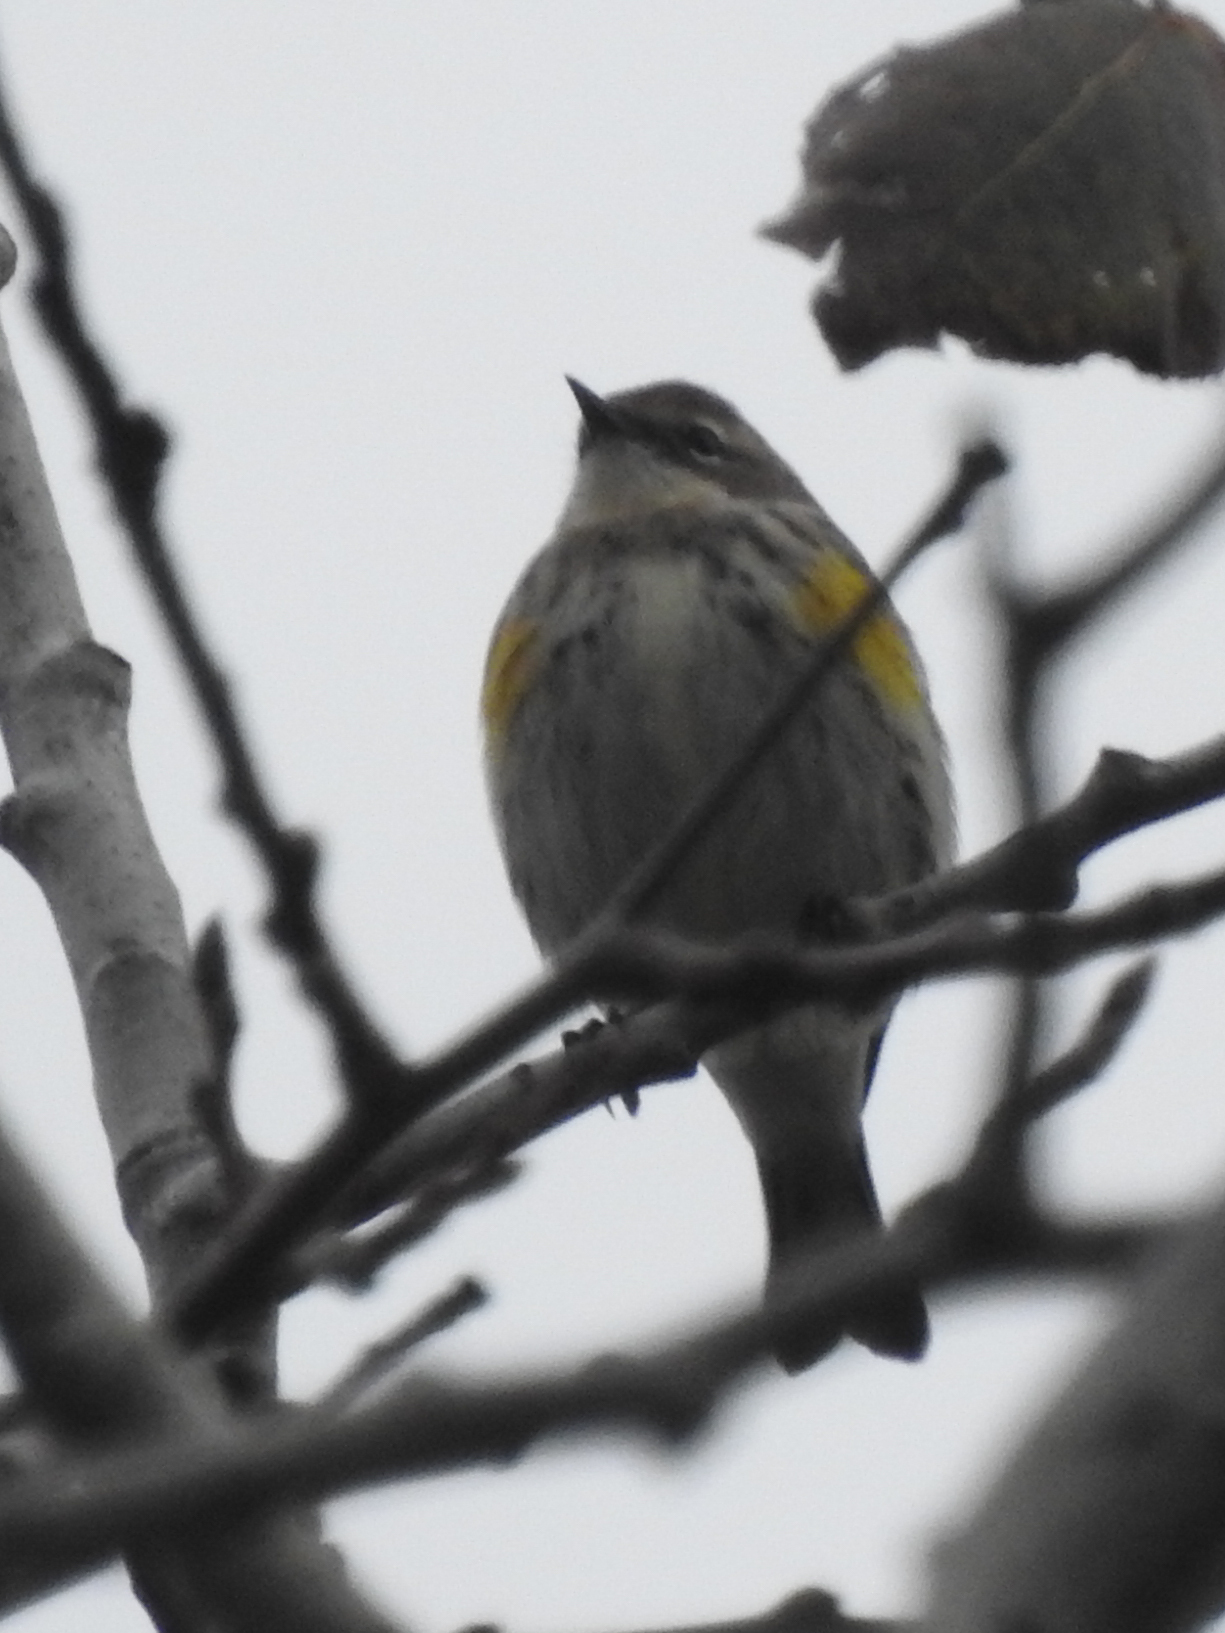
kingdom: Animalia
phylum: Chordata
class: Aves
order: Passeriformes
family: Parulidae
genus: Setophaga
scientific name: Setophaga coronata
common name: Myrtle warbler
